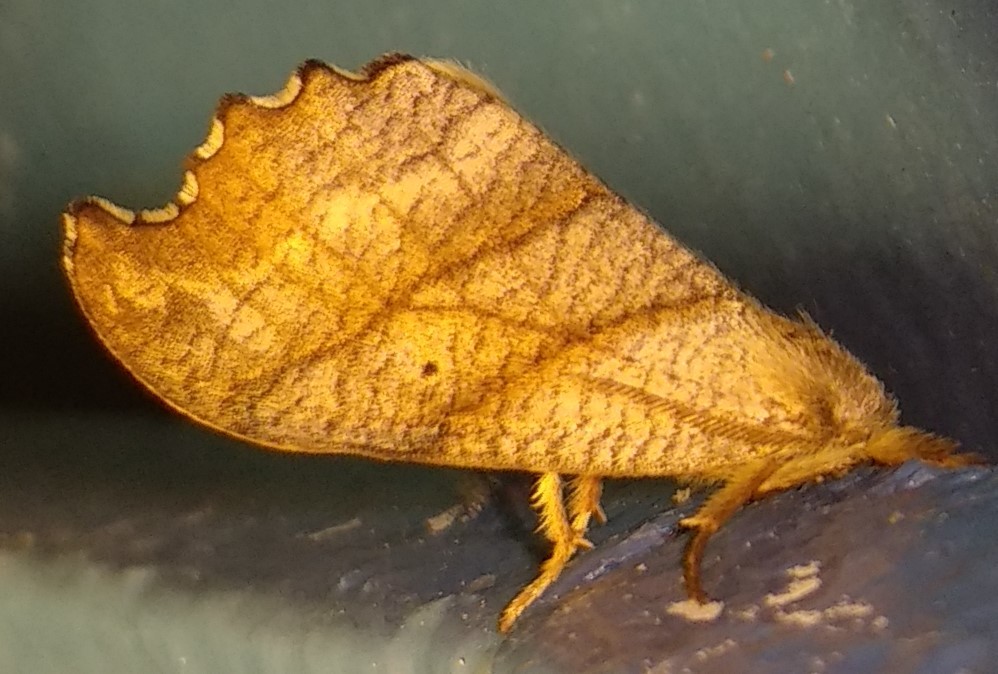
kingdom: Animalia
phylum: Arthropoda
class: Insecta
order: Lepidoptera
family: Drepanidae
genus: Falcaria
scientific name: Falcaria bilineata
